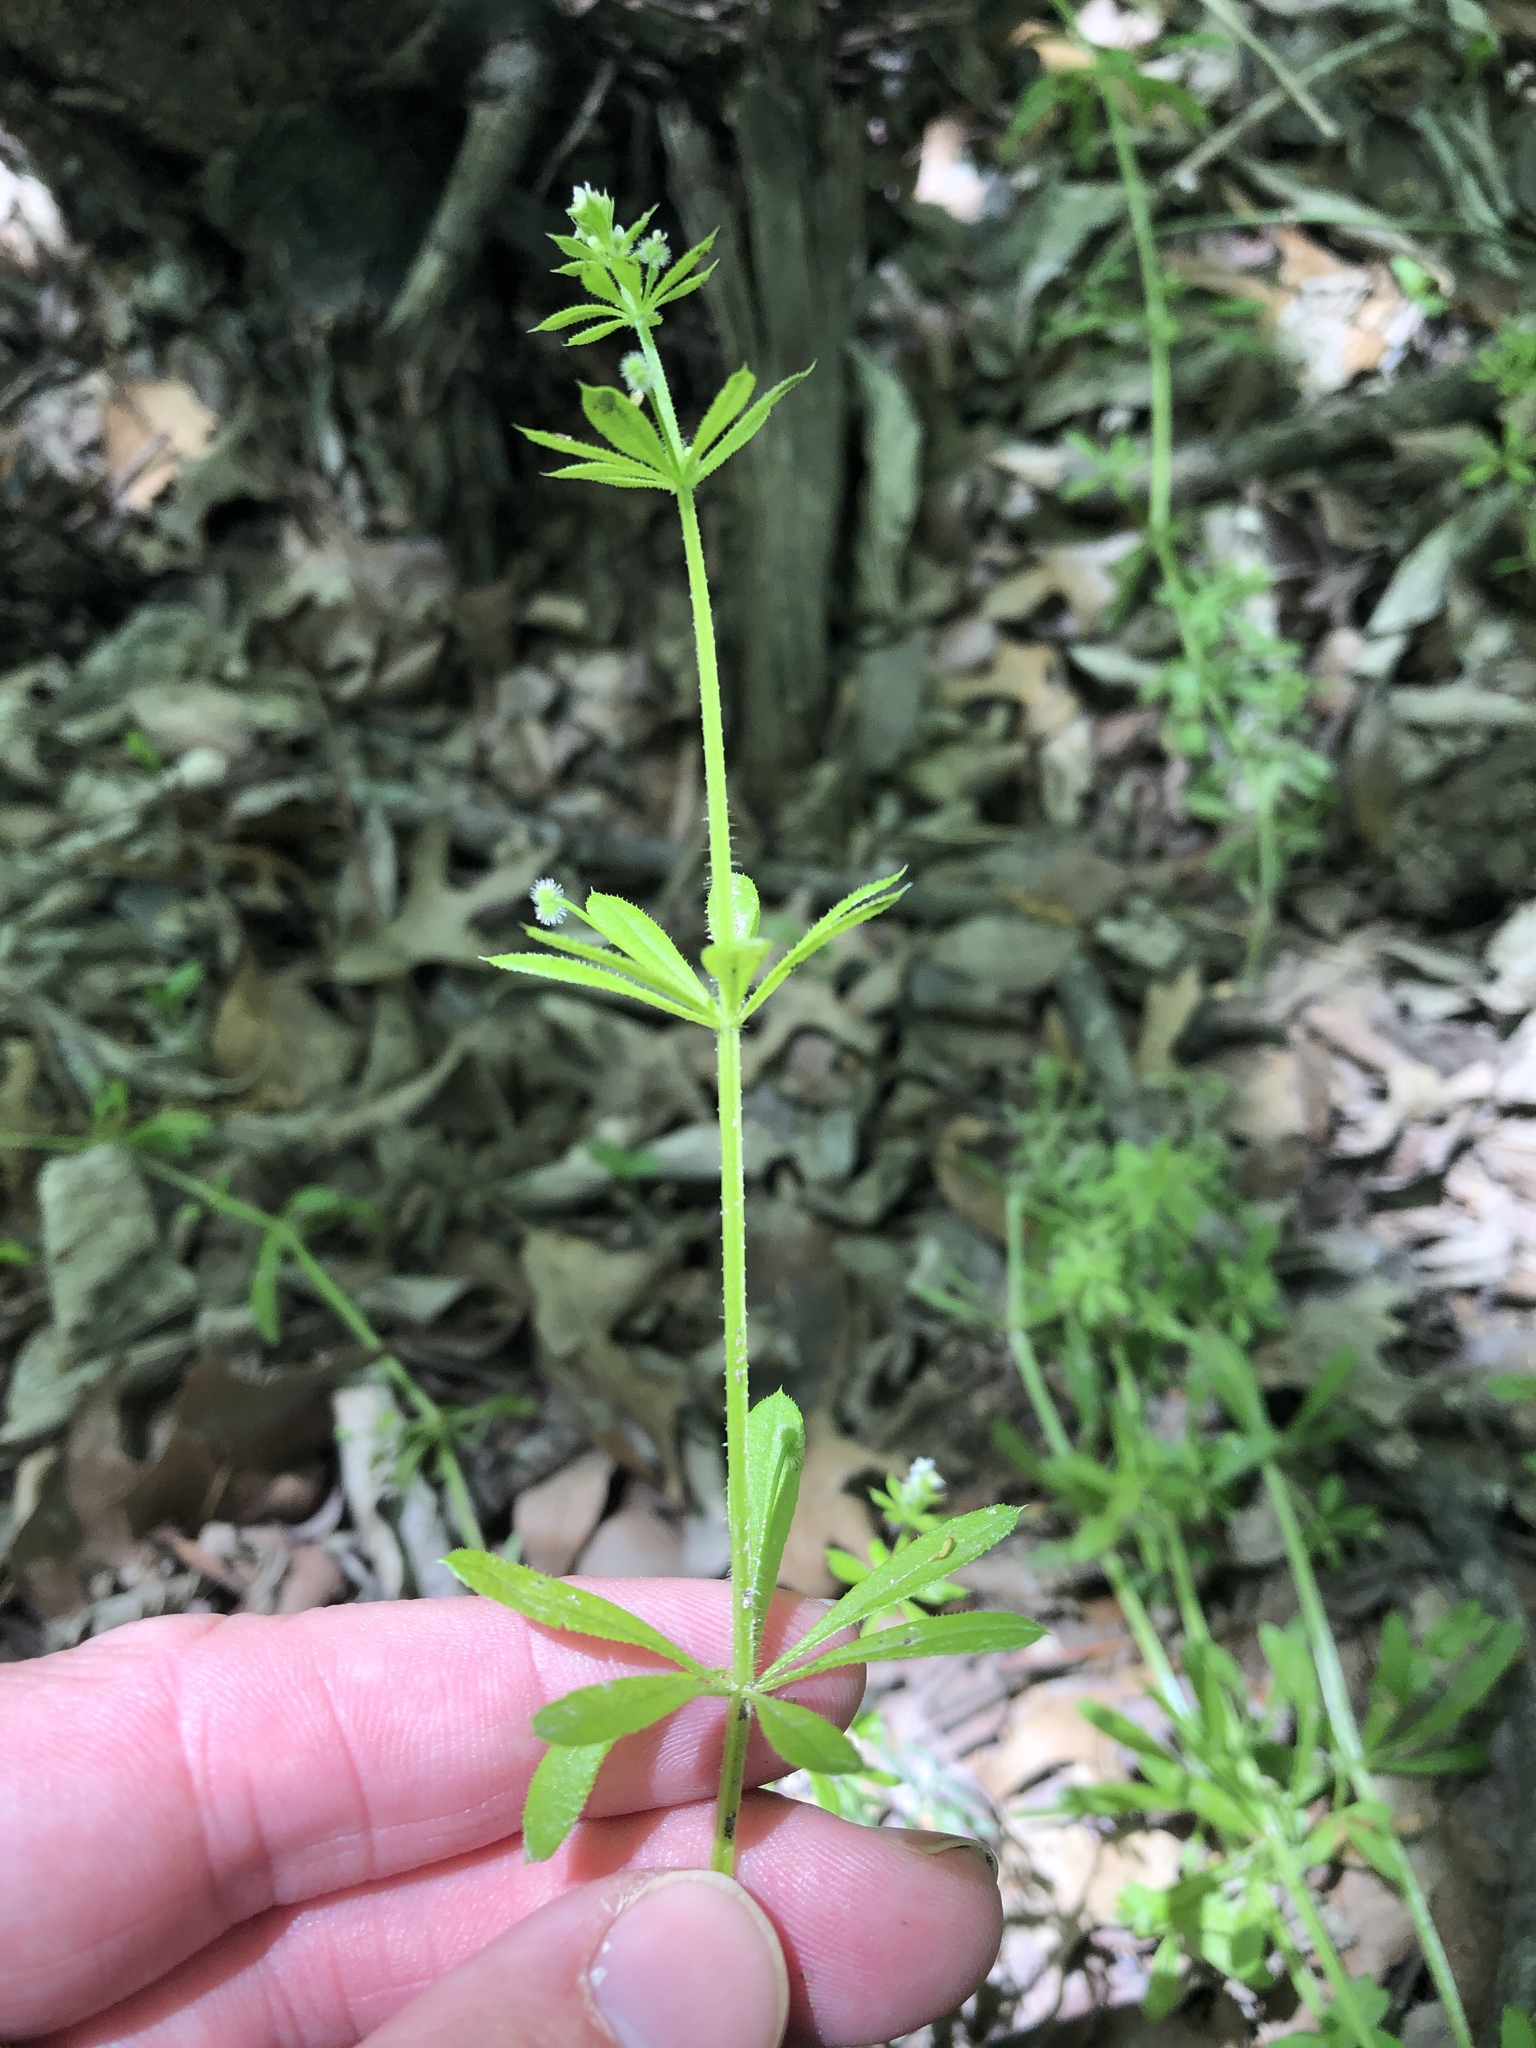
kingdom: Plantae
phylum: Tracheophyta
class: Magnoliopsida
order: Gentianales
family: Rubiaceae
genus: Galium
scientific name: Galium aparine
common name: Cleavers
